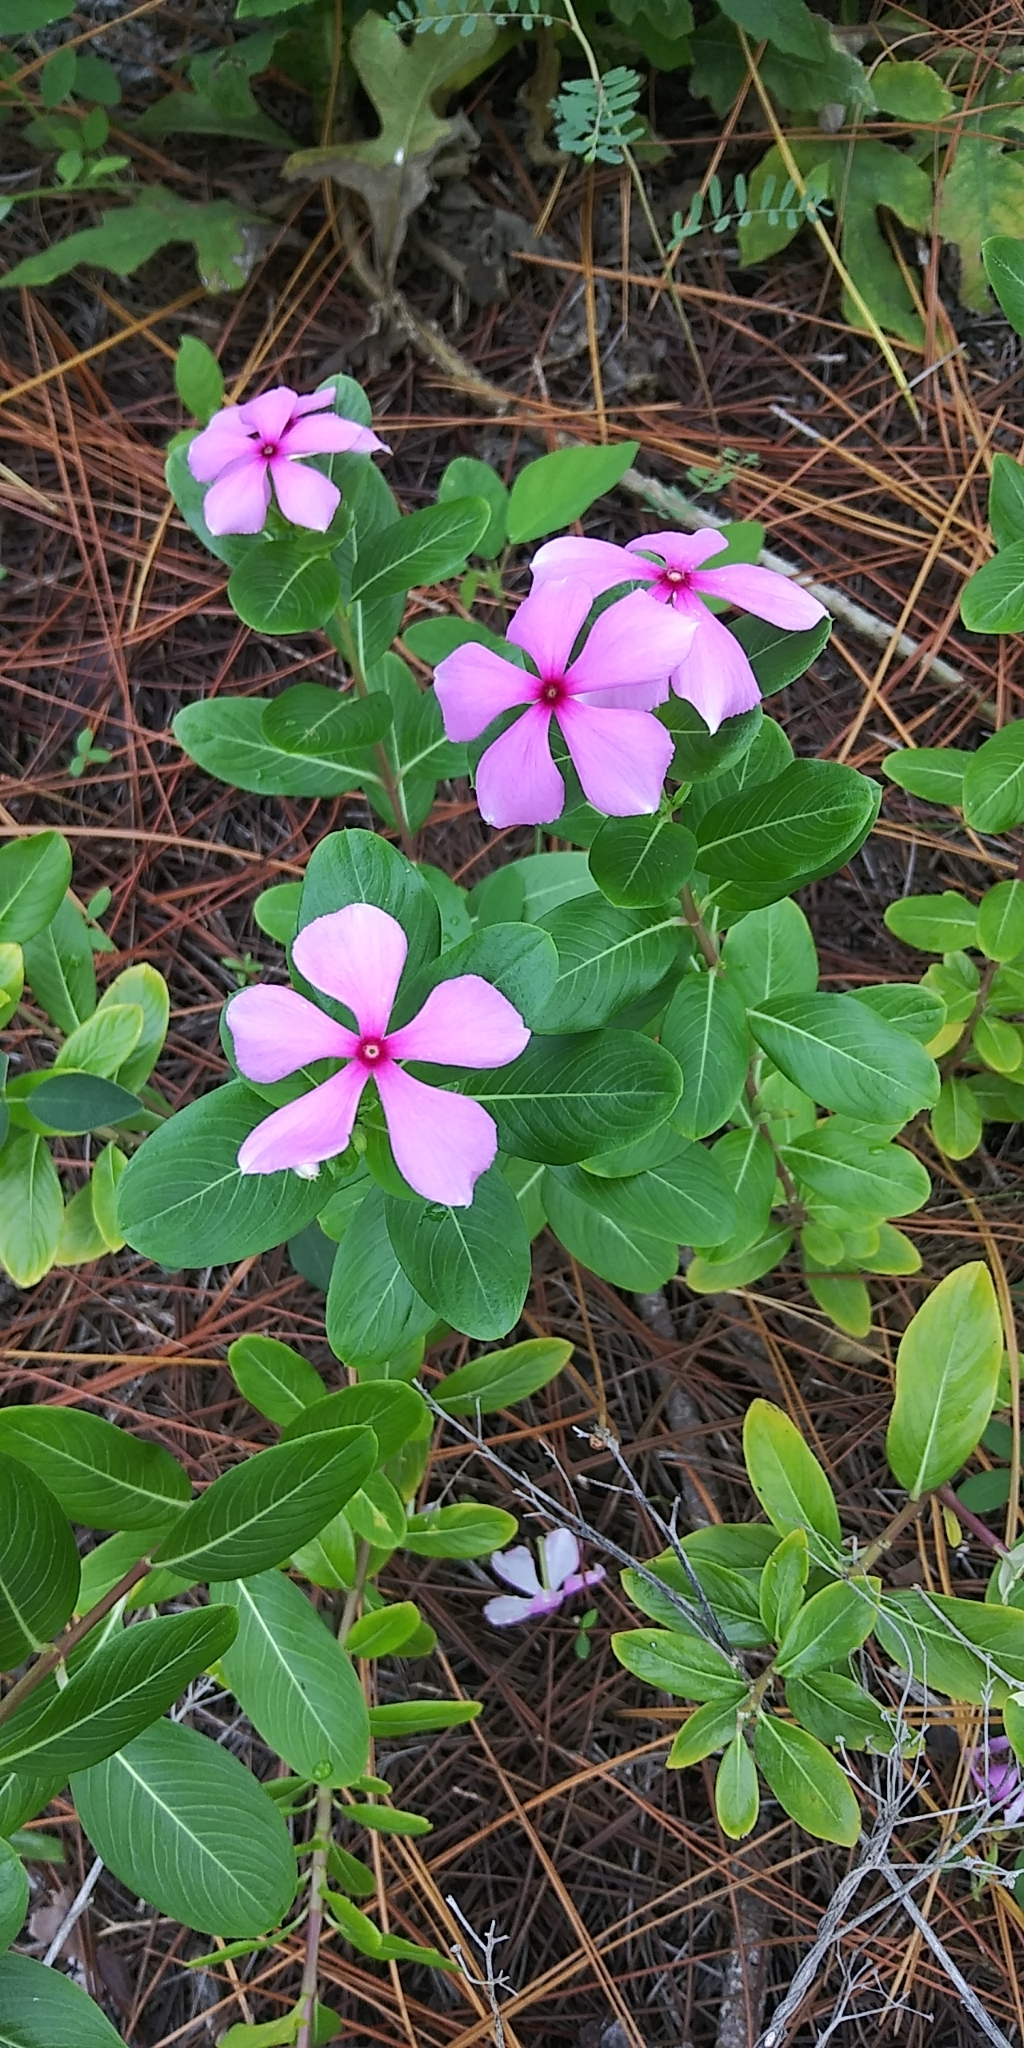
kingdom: Plantae
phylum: Tracheophyta
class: Magnoliopsida
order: Gentianales
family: Apocynaceae
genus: Catharanthus
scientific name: Catharanthus roseus
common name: Madagascar periwinkle
